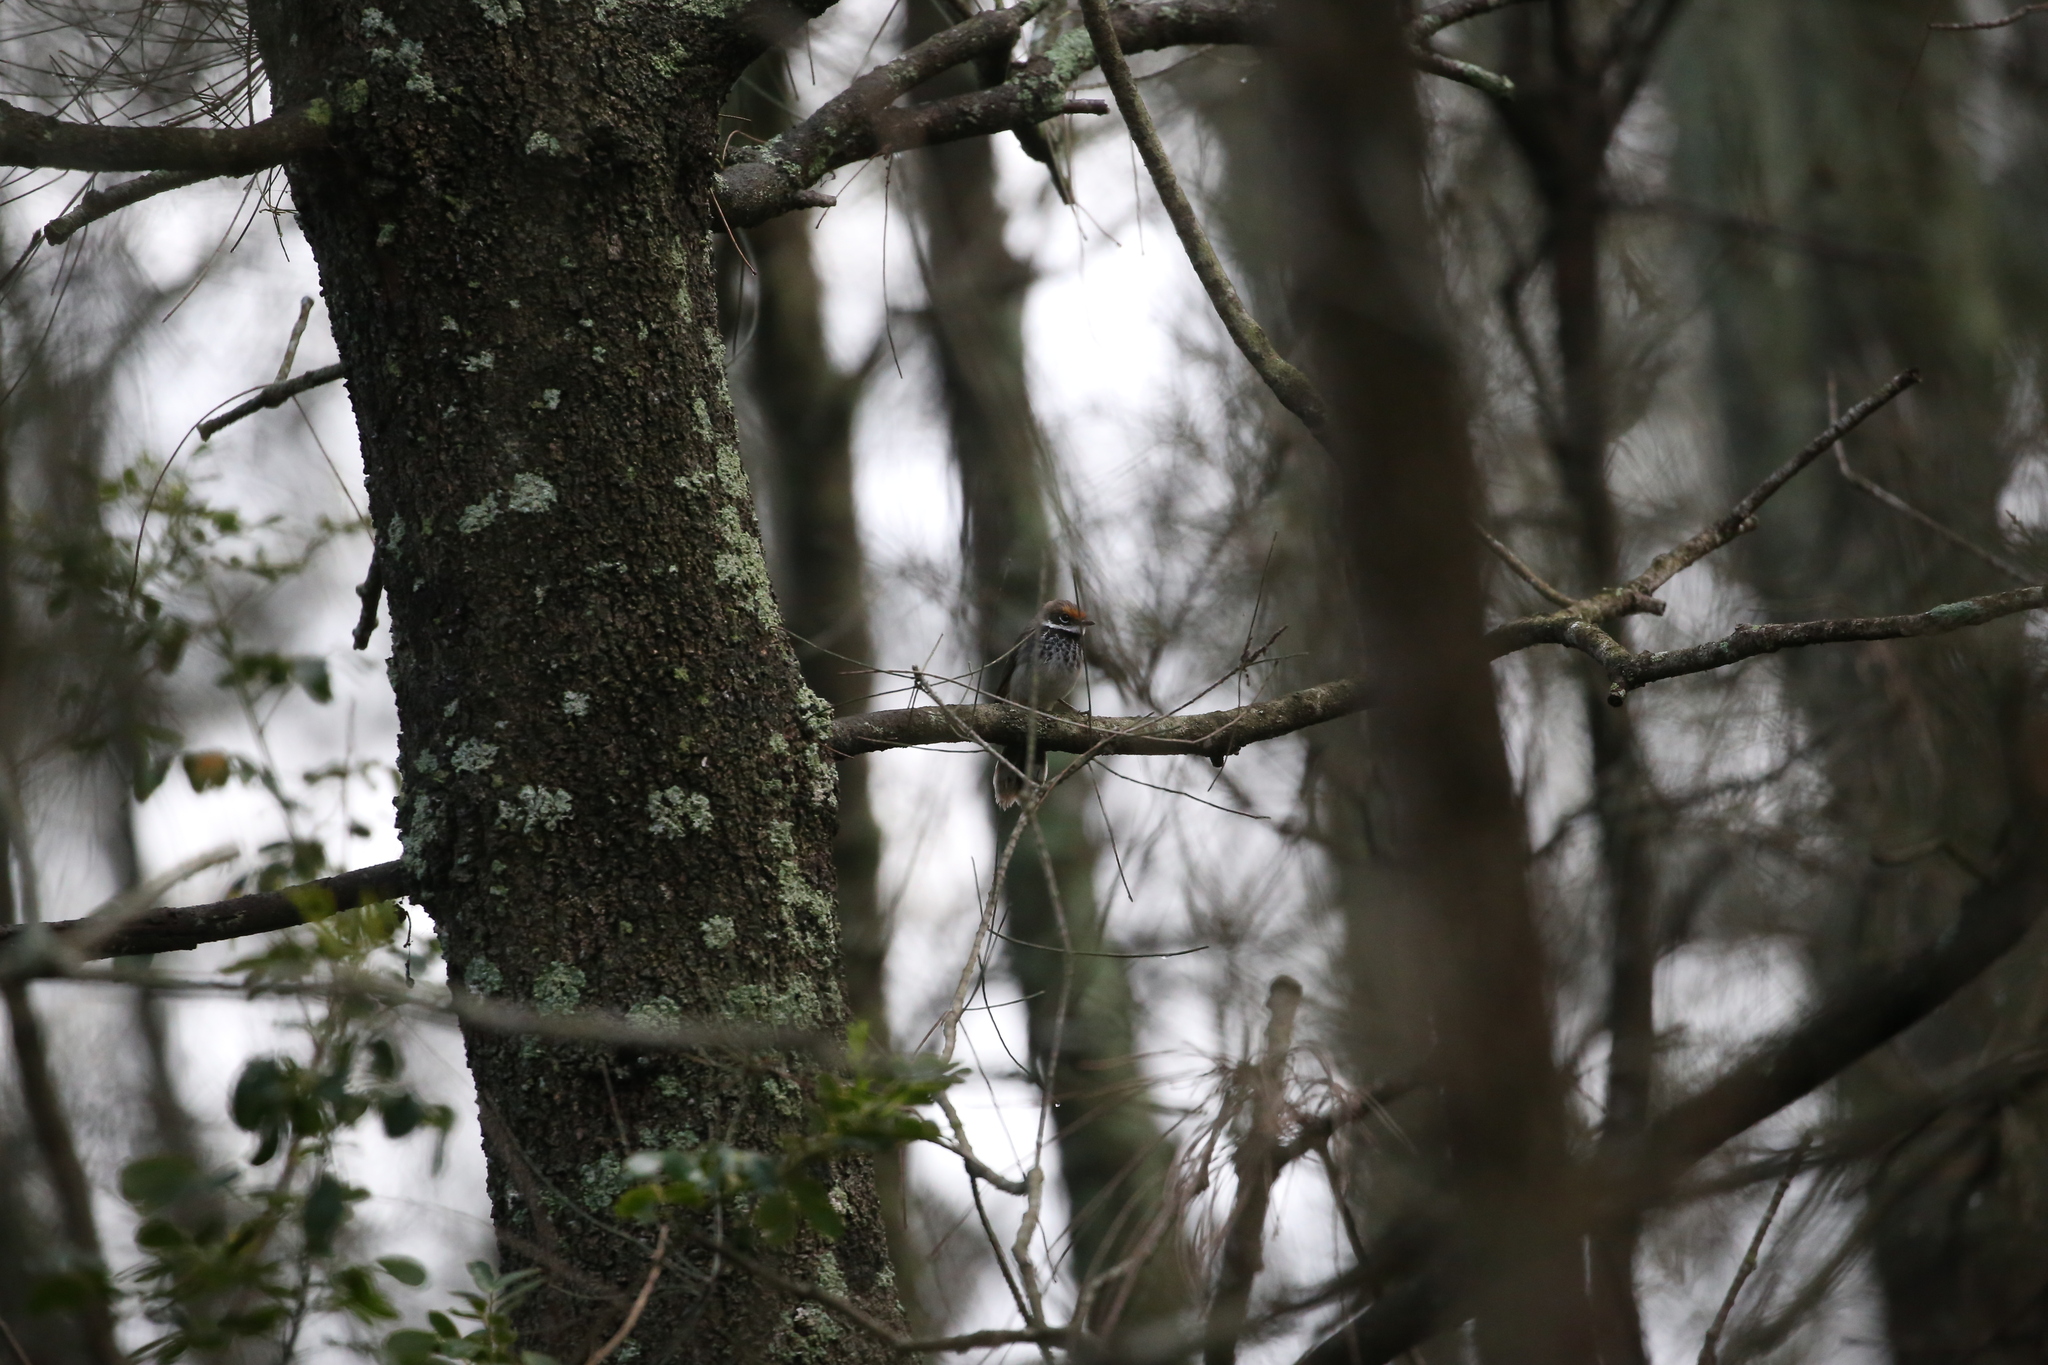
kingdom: Animalia
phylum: Chordata
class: Aves
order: Passeriformes
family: Rhipiduridae
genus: Rhipidura
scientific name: Rhipidura rufifrons
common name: Rufous fantail
